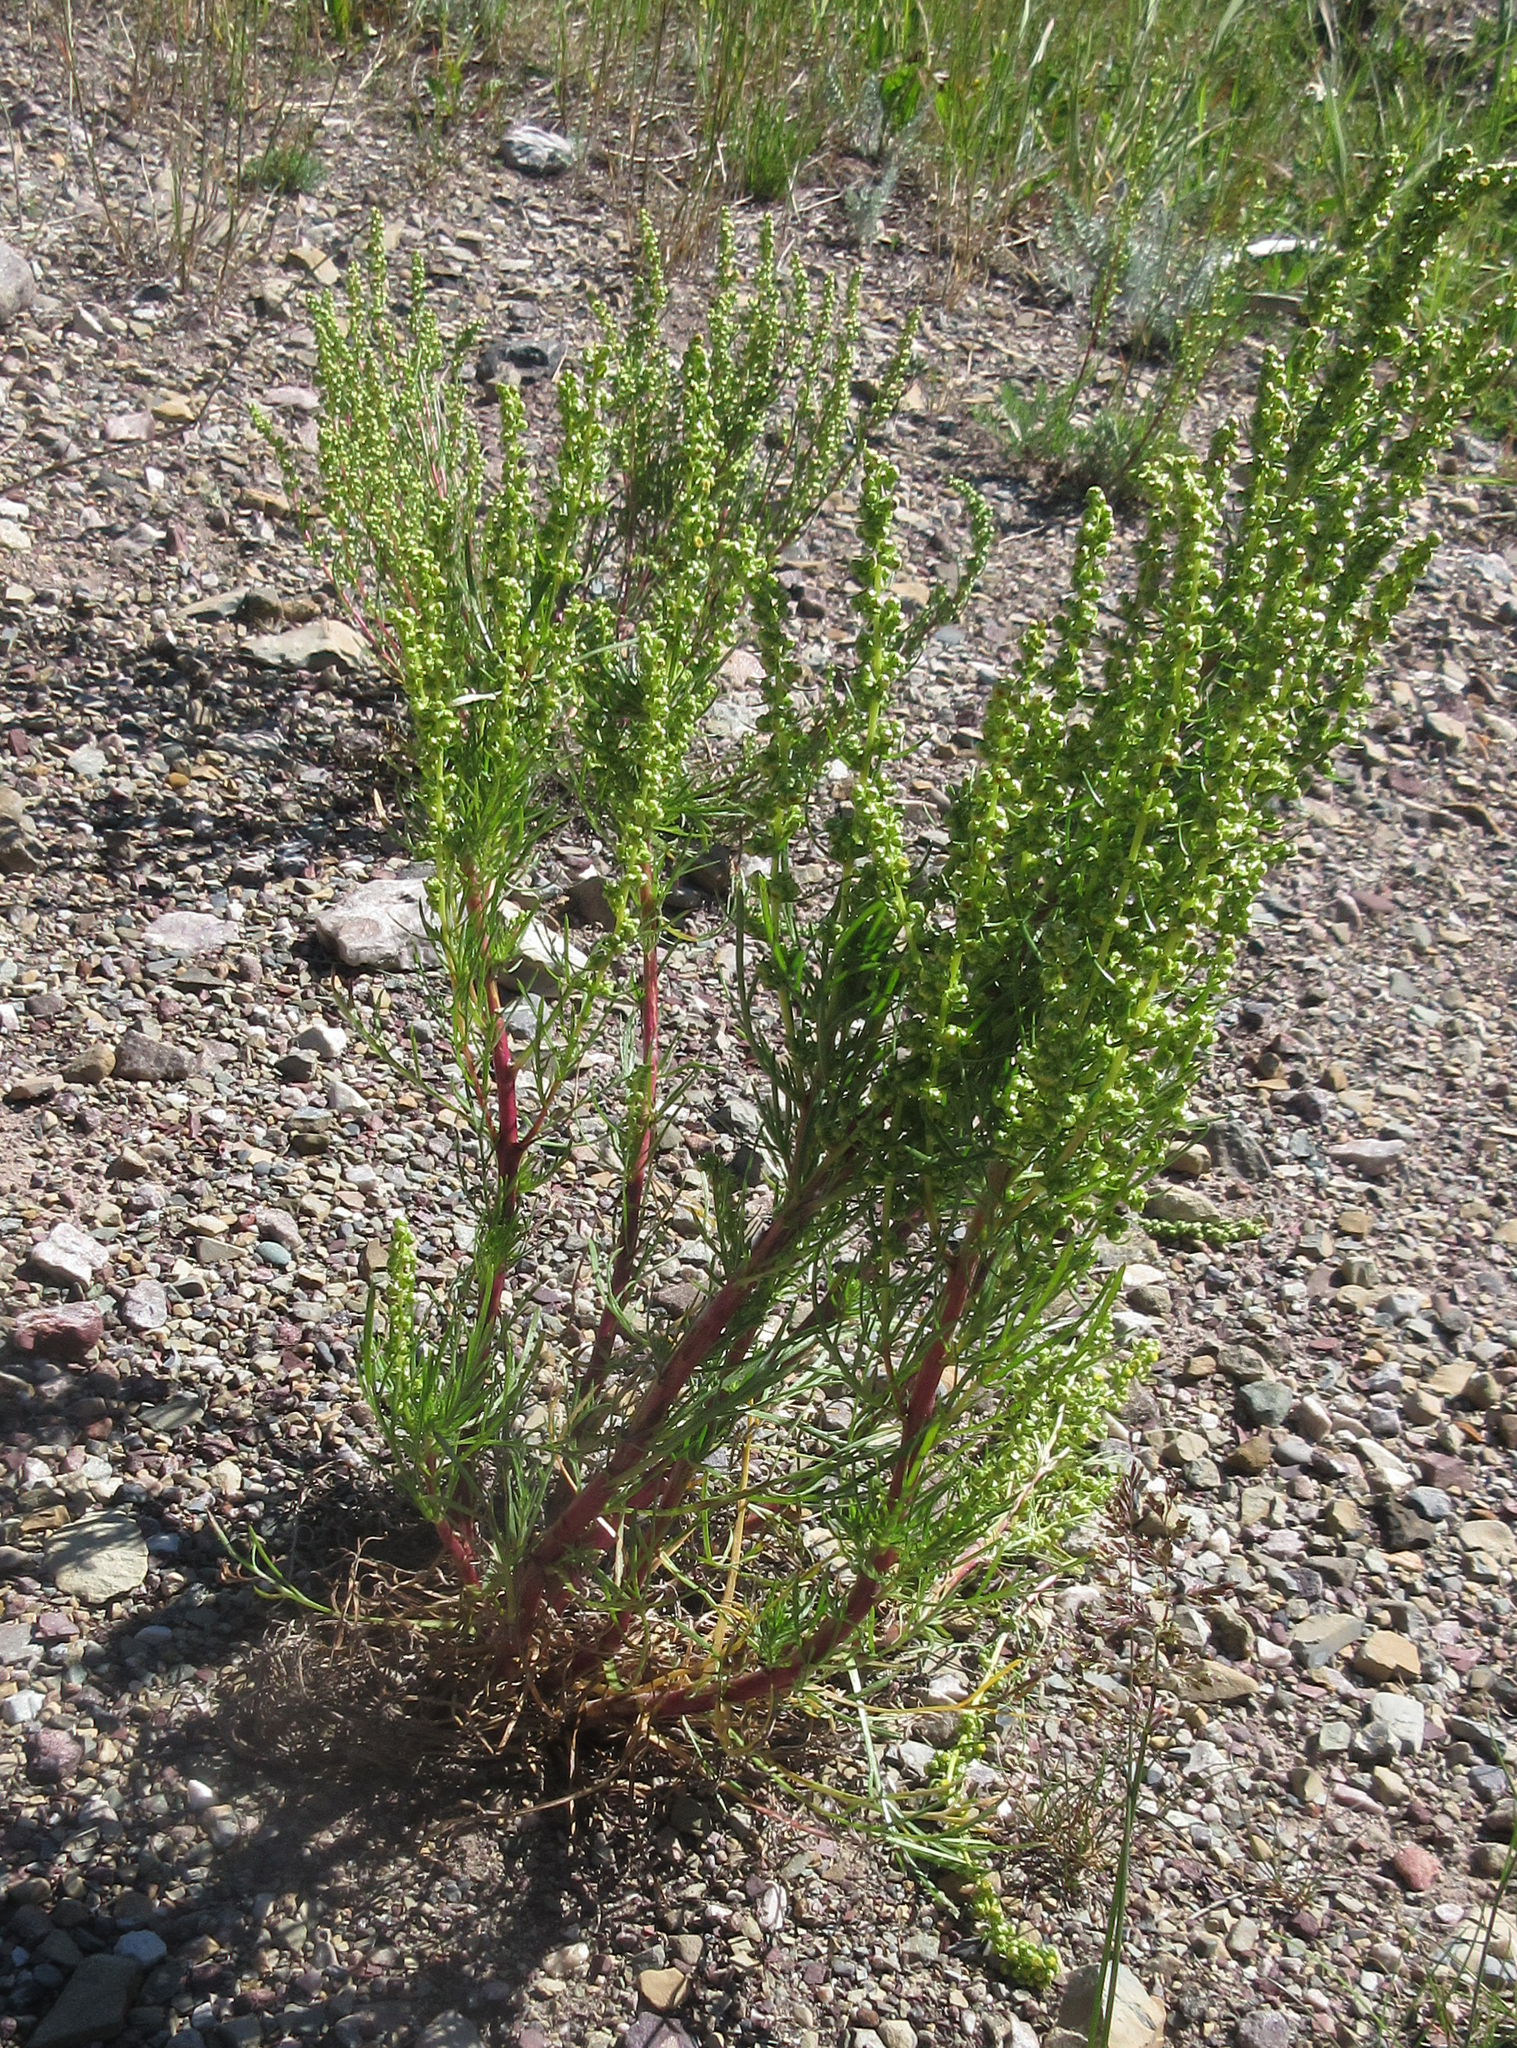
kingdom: Plantae
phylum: Tracheophyta
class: Magnoliopsida
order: Asterales
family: Asteraceae
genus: Artemisia
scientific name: Artemisia campestris
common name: Field wormwood
